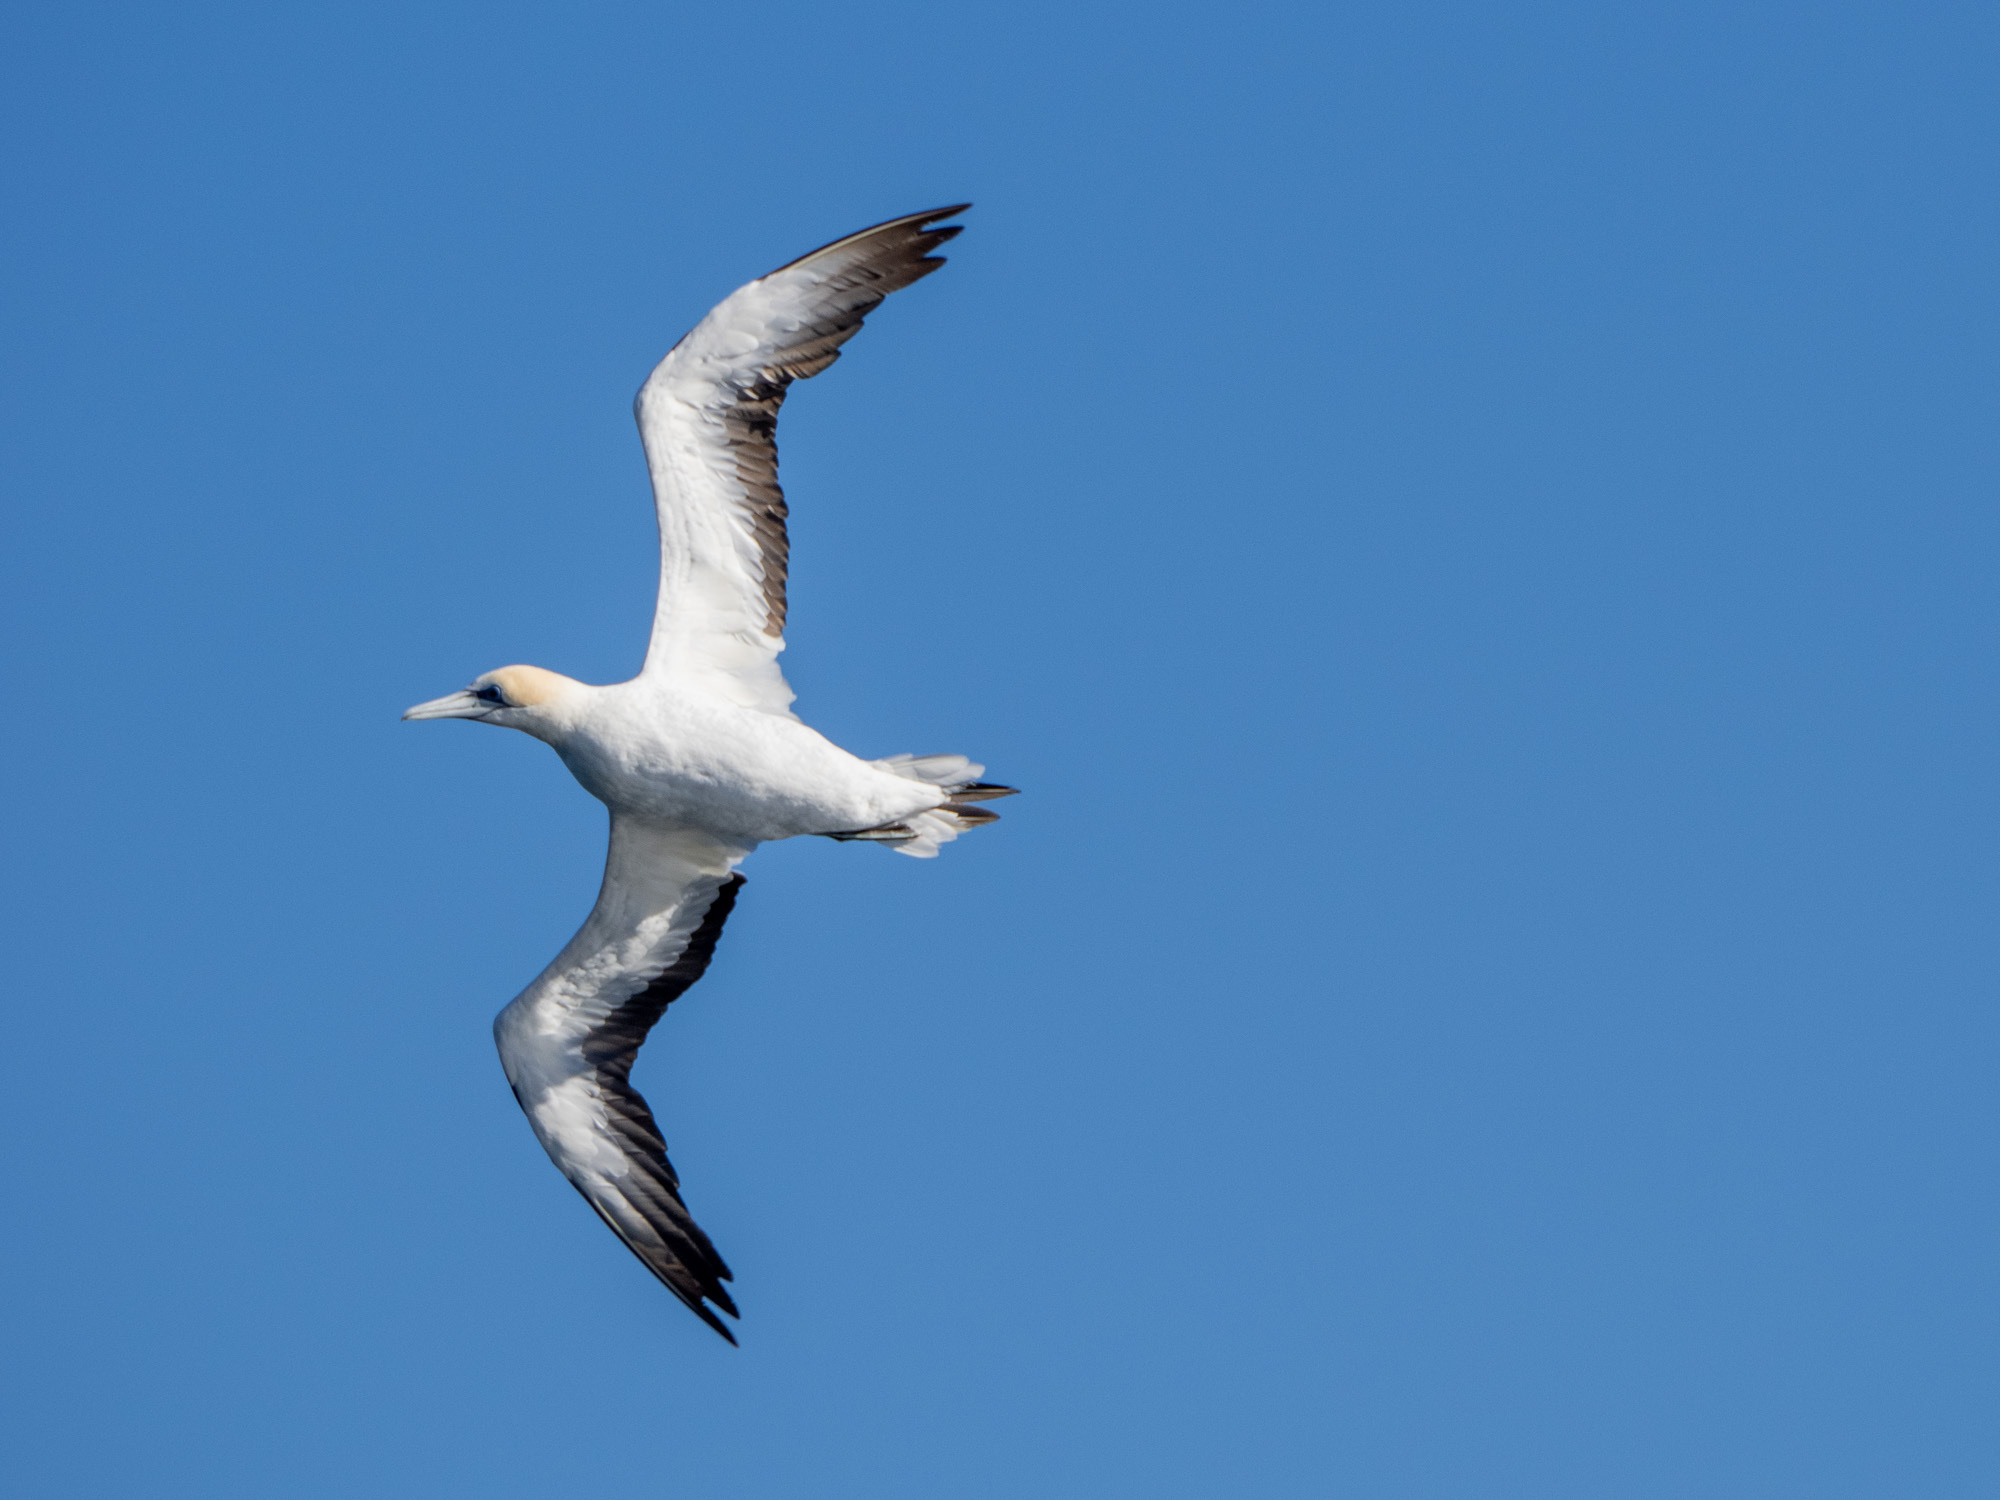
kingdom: Animalia
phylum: Chordata
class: Aves
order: Suliformes
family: Sulidae
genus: Morus
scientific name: Morus serrator
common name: Australasian gannet
